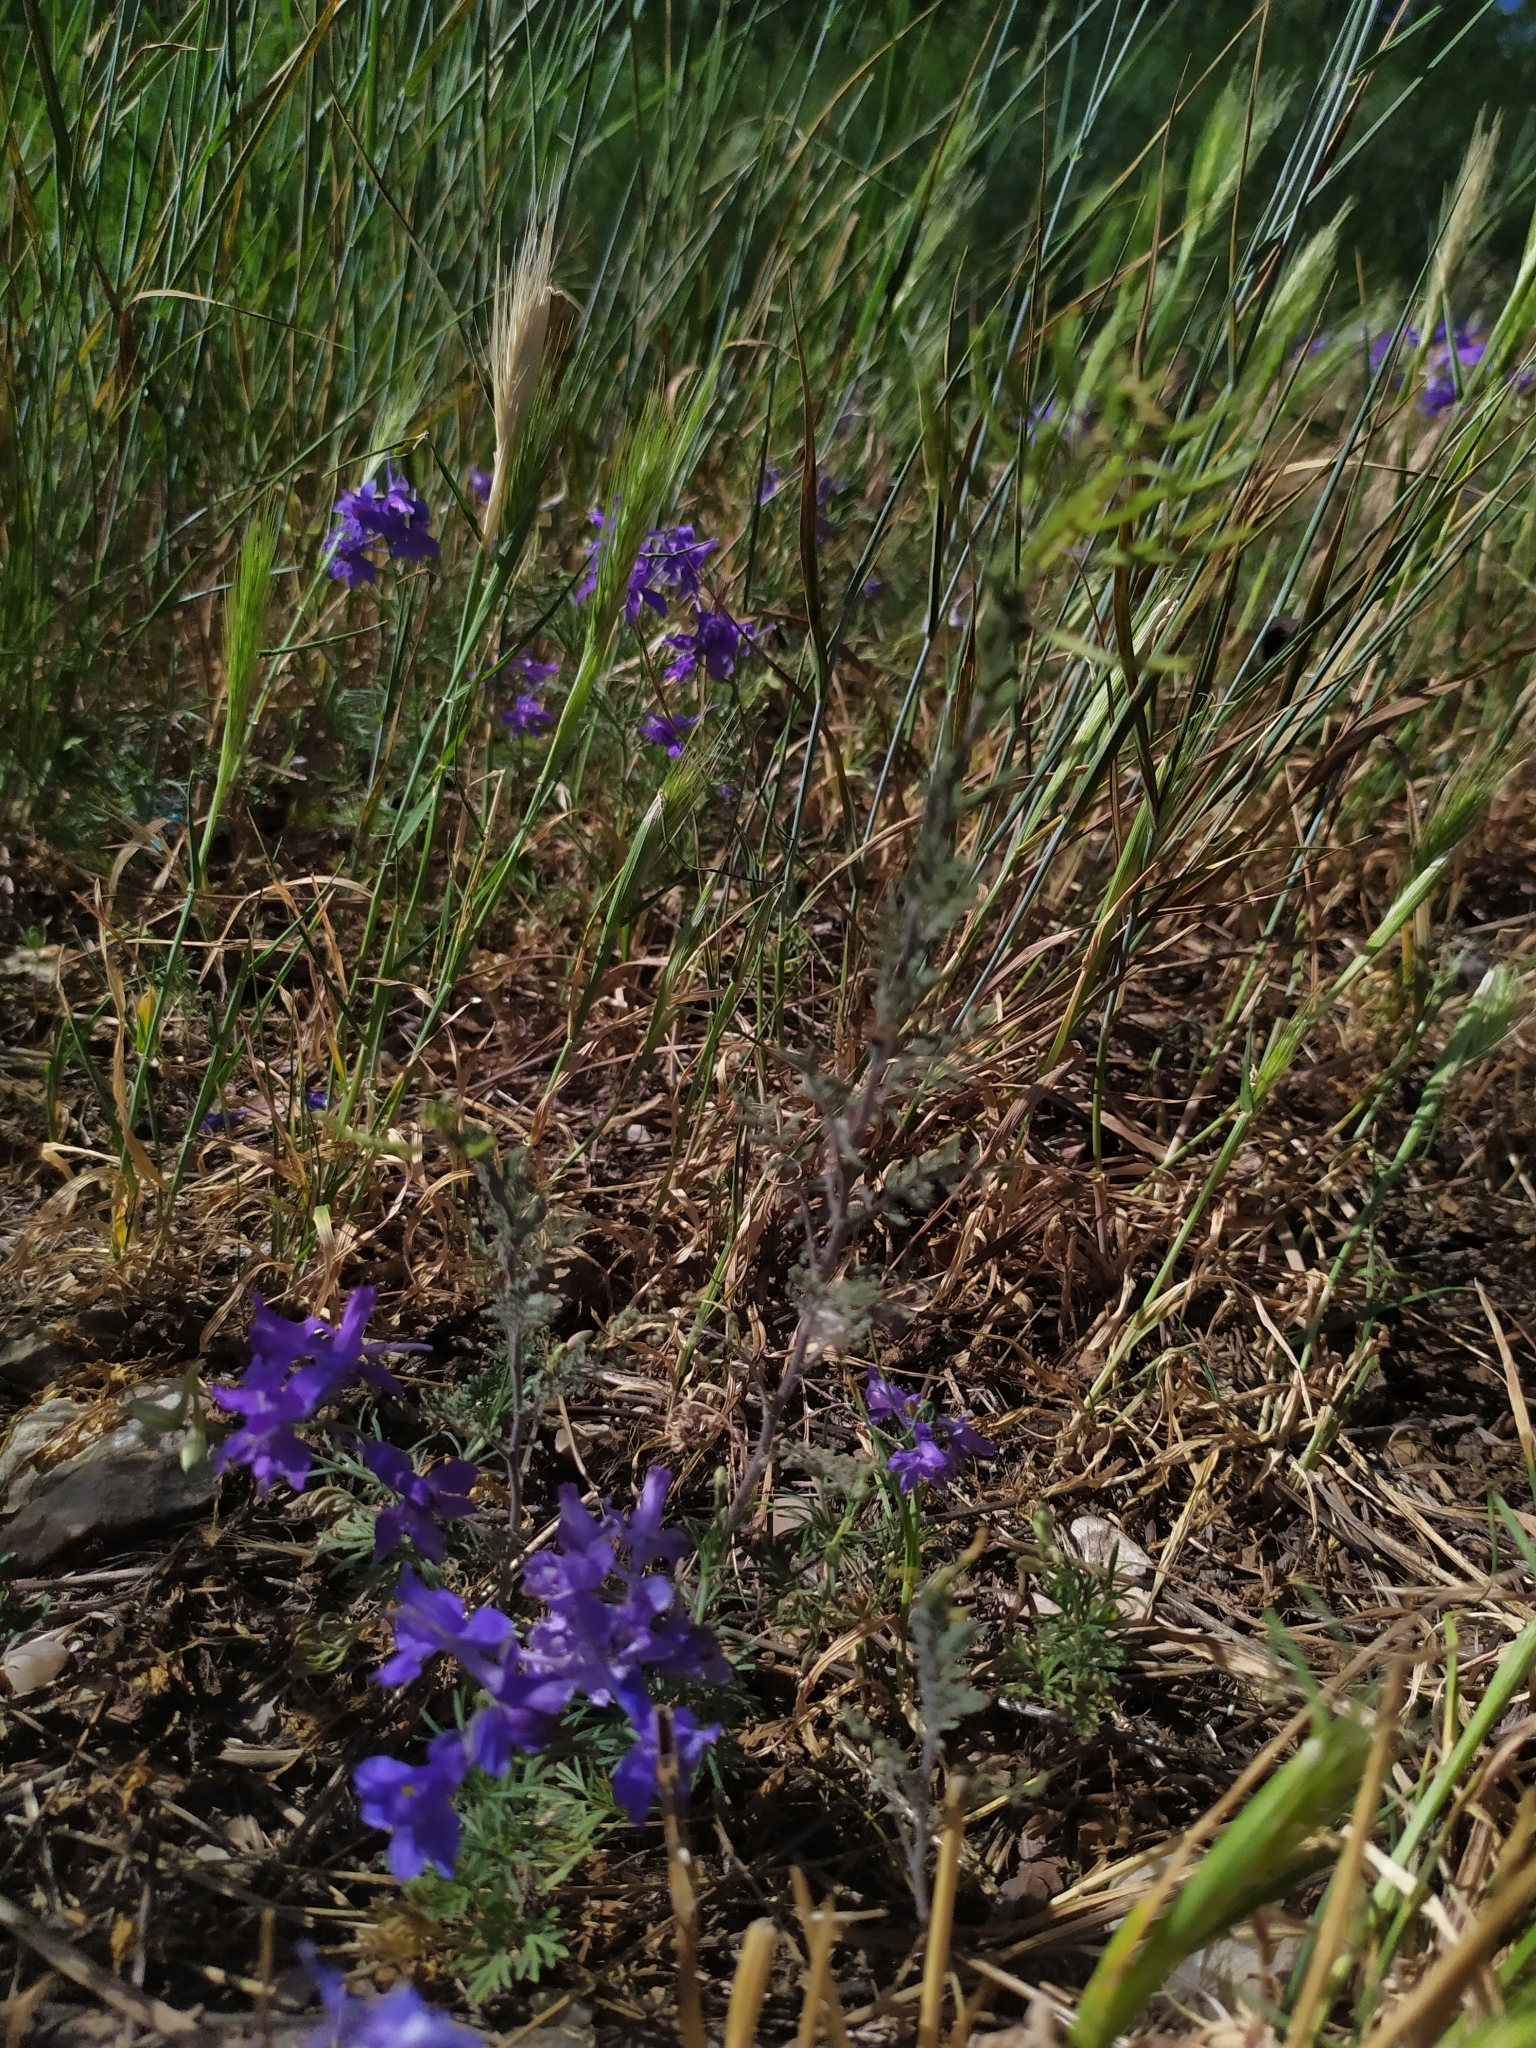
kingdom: Plantae
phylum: Tracheophyta
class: Magnoliopsida
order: Ranunculales
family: Ranunculaceae
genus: Delphinium
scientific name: Delphinium consolida
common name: Branching larkspur
